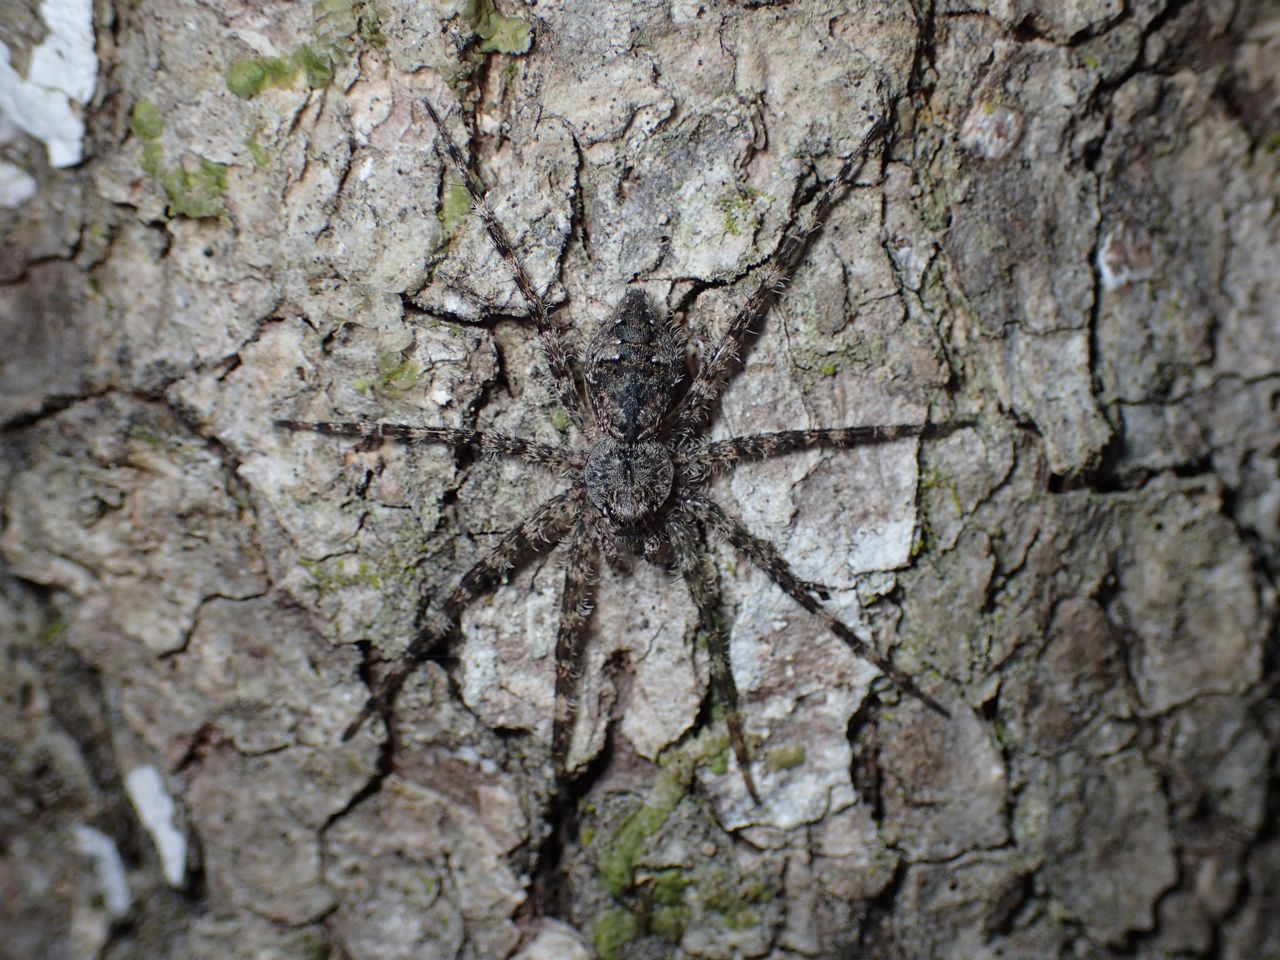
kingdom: Animalia
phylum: Arthropoda
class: Arachnida
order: Araneae
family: Pisauridae
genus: Dolomedes
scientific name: Dolomedes albineus
